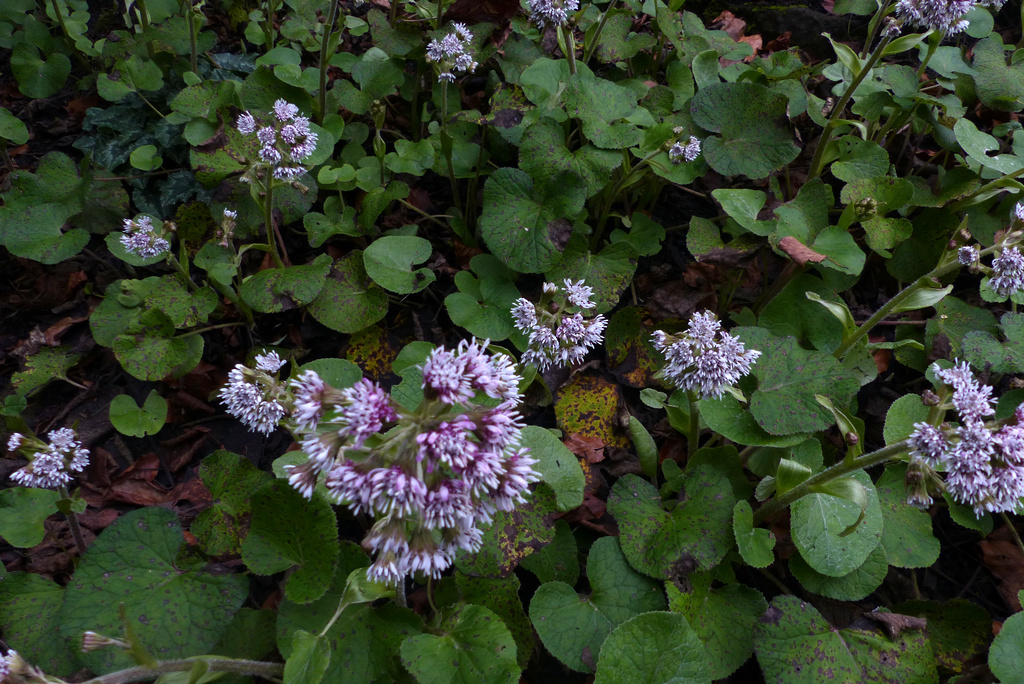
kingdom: Plantae
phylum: Tracheophyta
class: Magnoliopsida
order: Asterales
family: Asteraceae
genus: Petasites
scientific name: Petasites pyrenaicus
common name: Winter heliotrope
